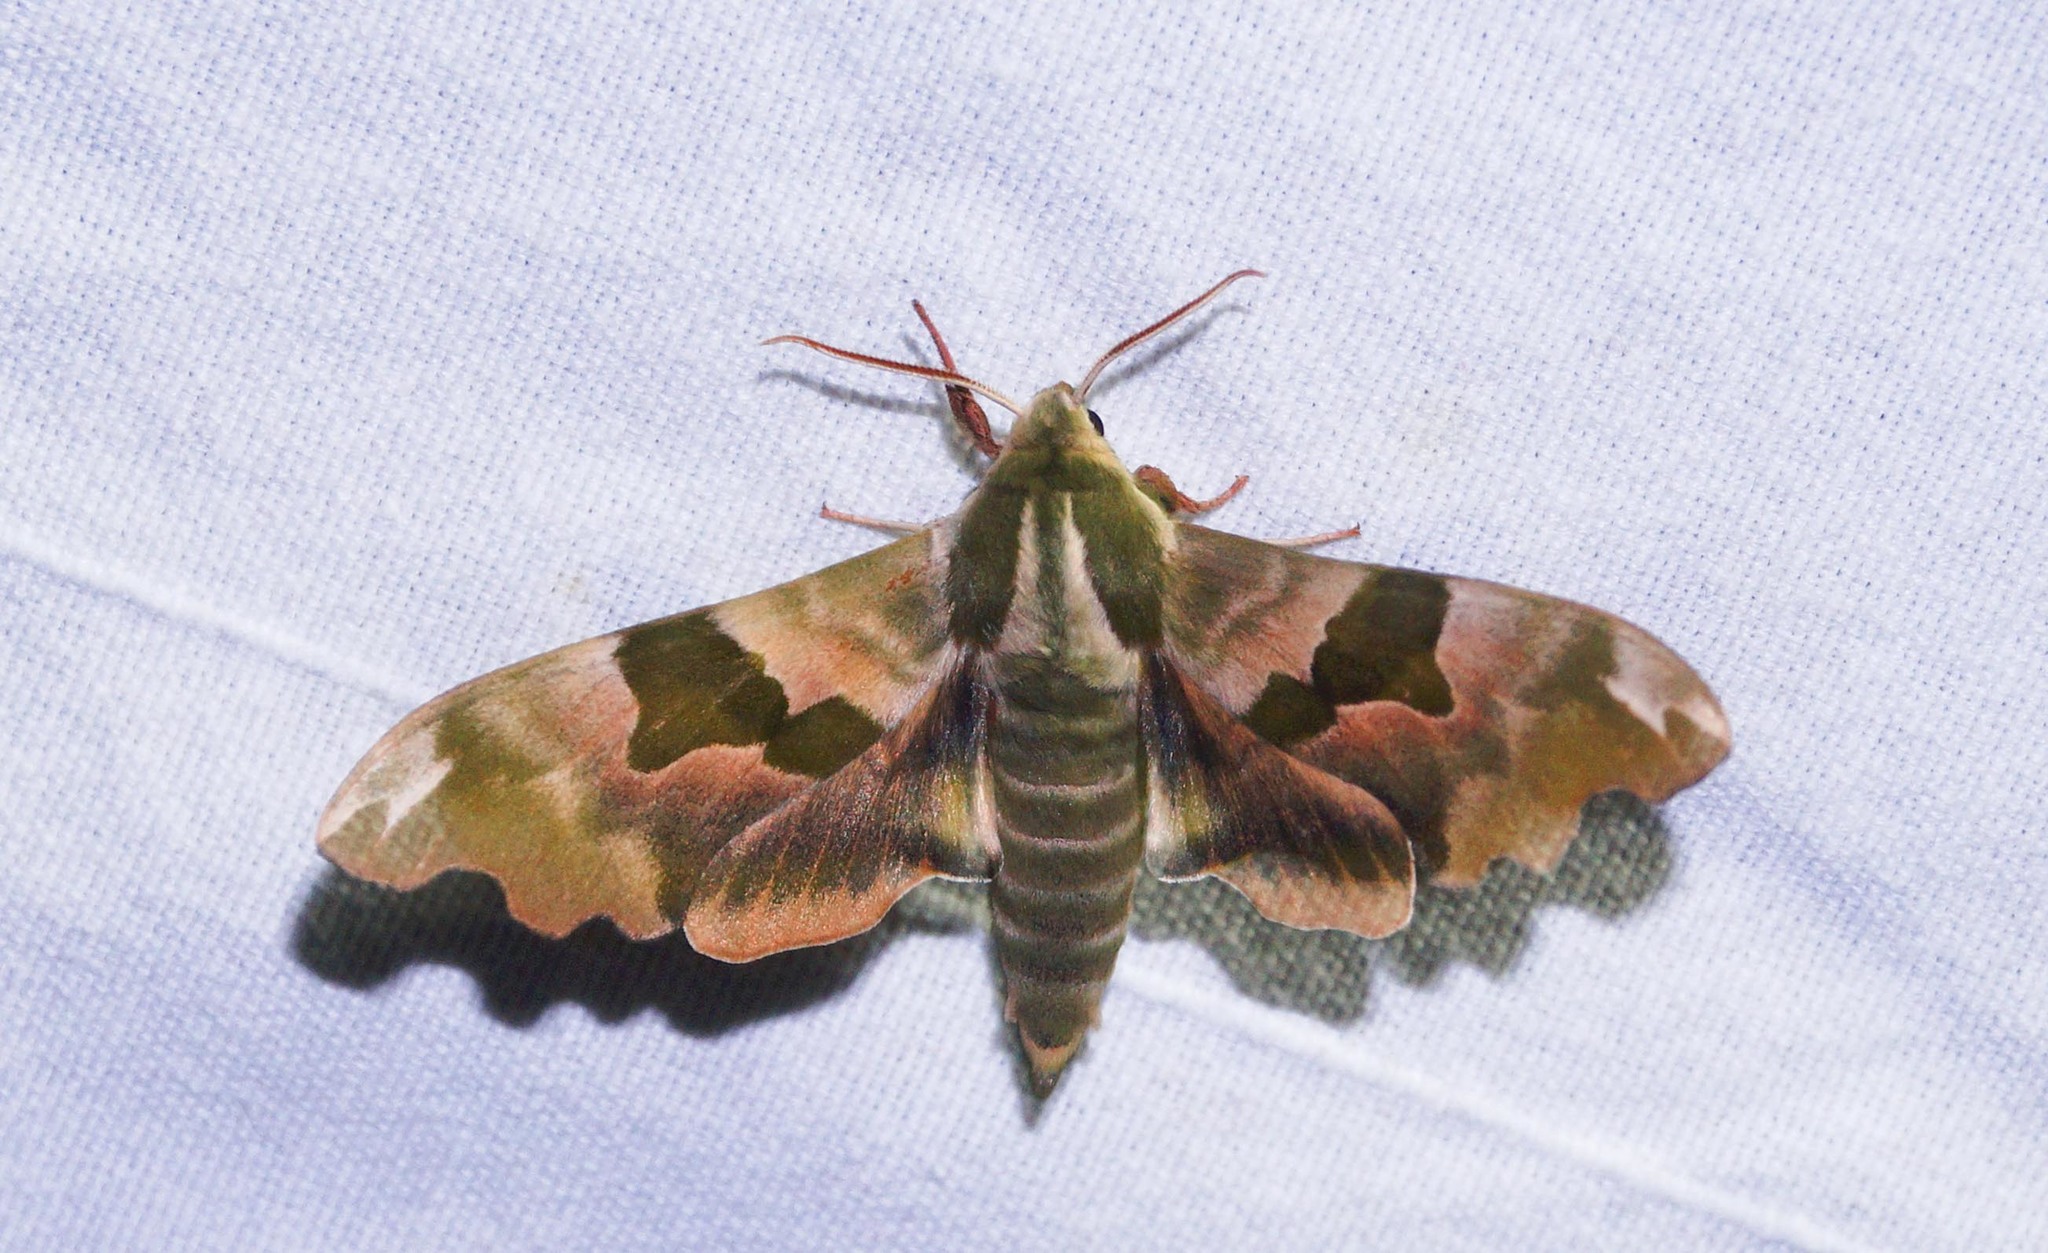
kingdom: Animalia
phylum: Arthropoda
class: Insecta
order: Lepidoptera
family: Sphingidae
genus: Mimas
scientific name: Mimas tiliae
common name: Lime hawk-moth
